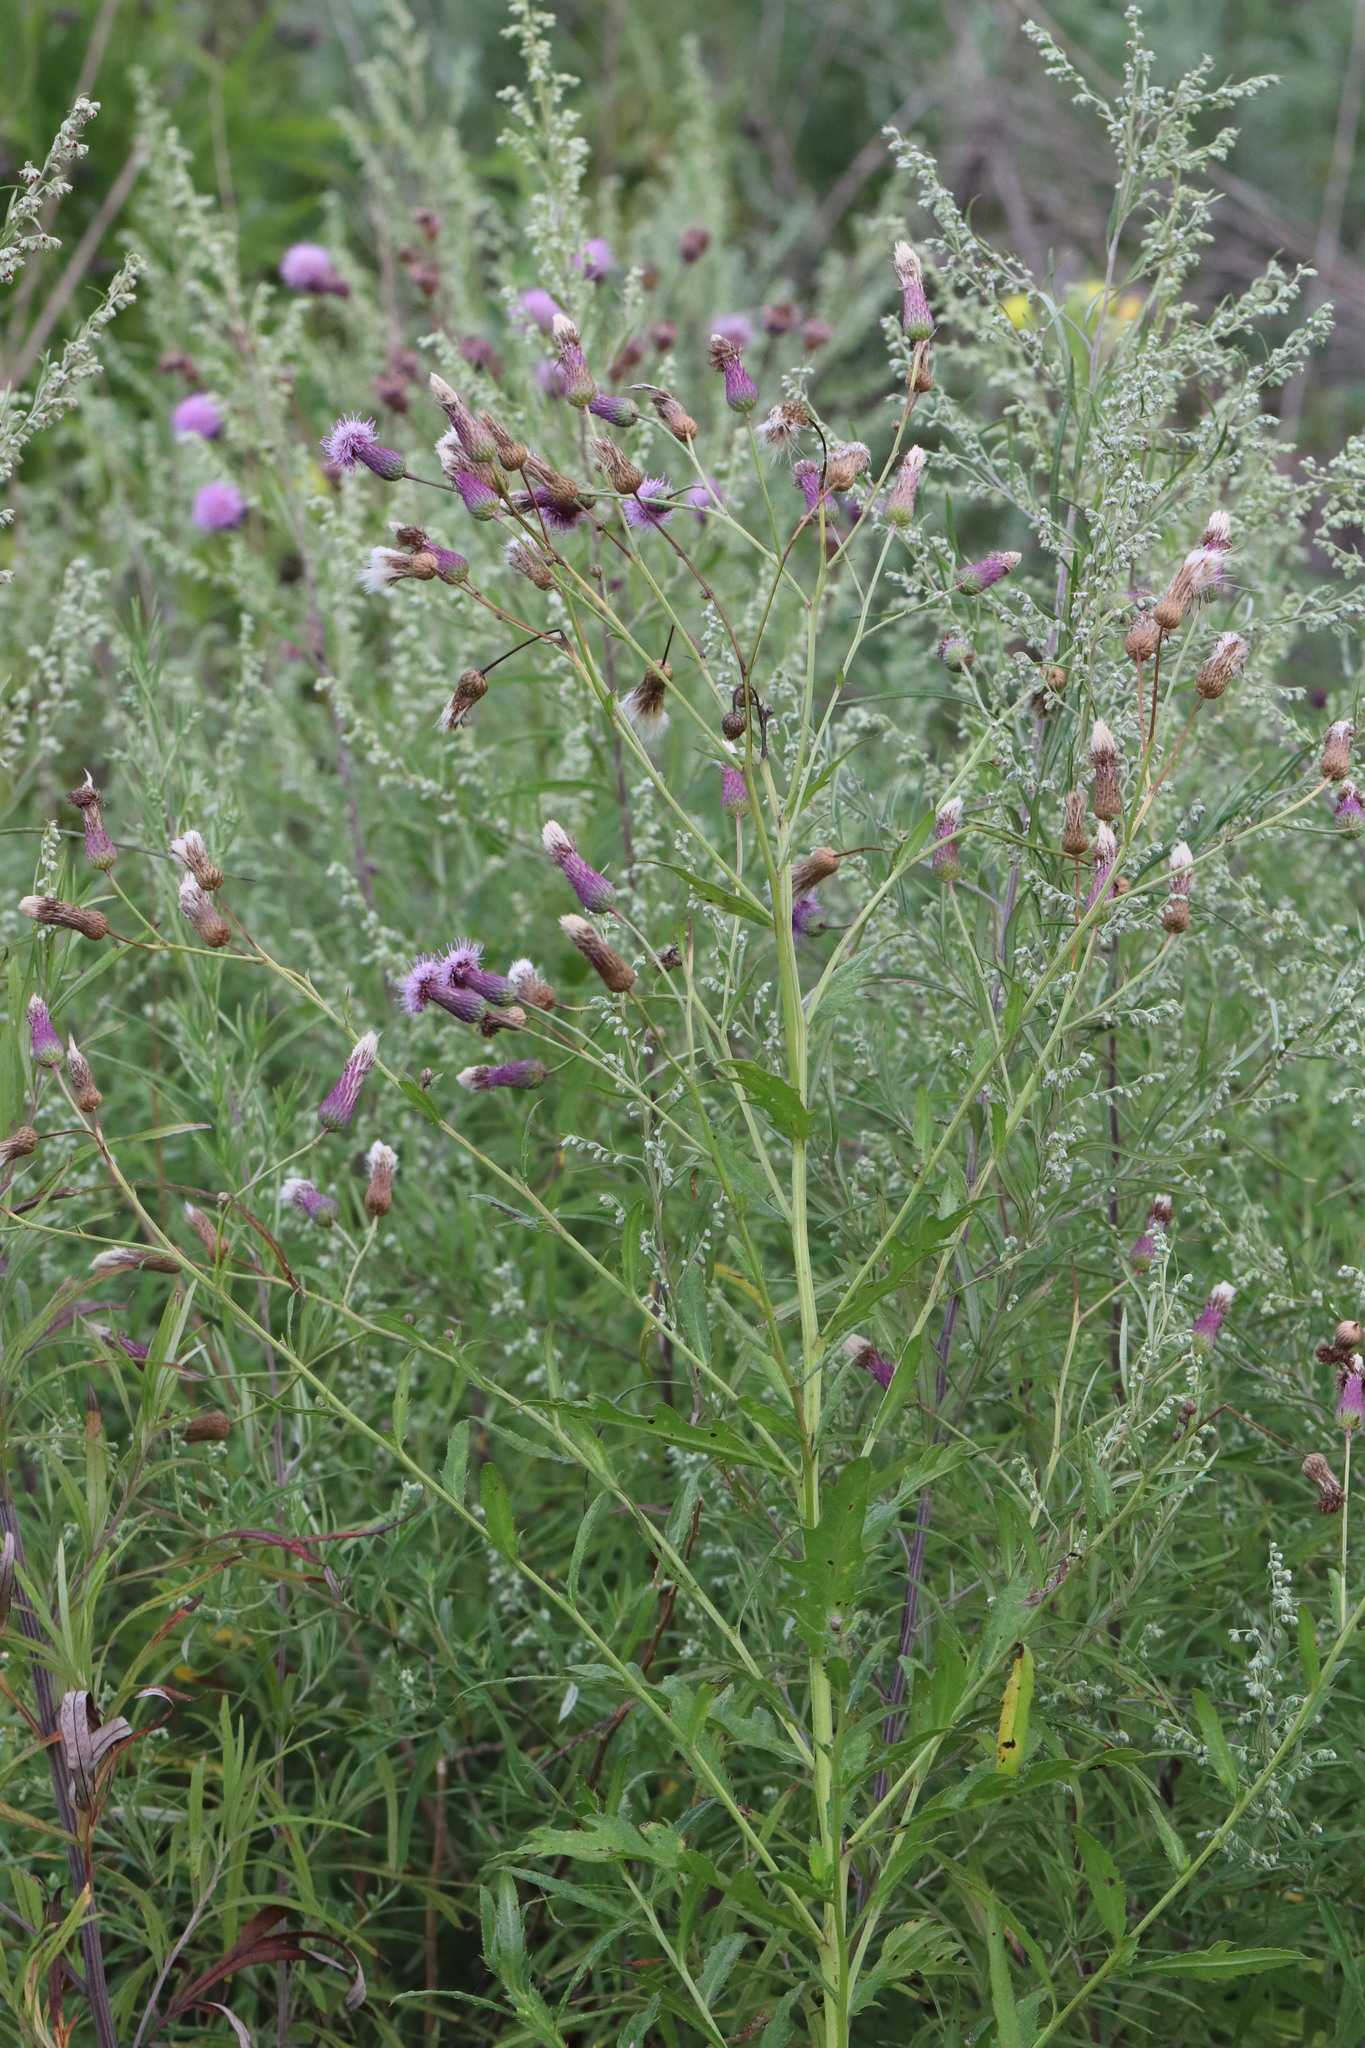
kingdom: Plantae
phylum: Tracheophyta
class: Magnoliopsida
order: Asterales
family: Asteraceae
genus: Cirsium
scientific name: Cirsium arvense
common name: Creeping thistle
